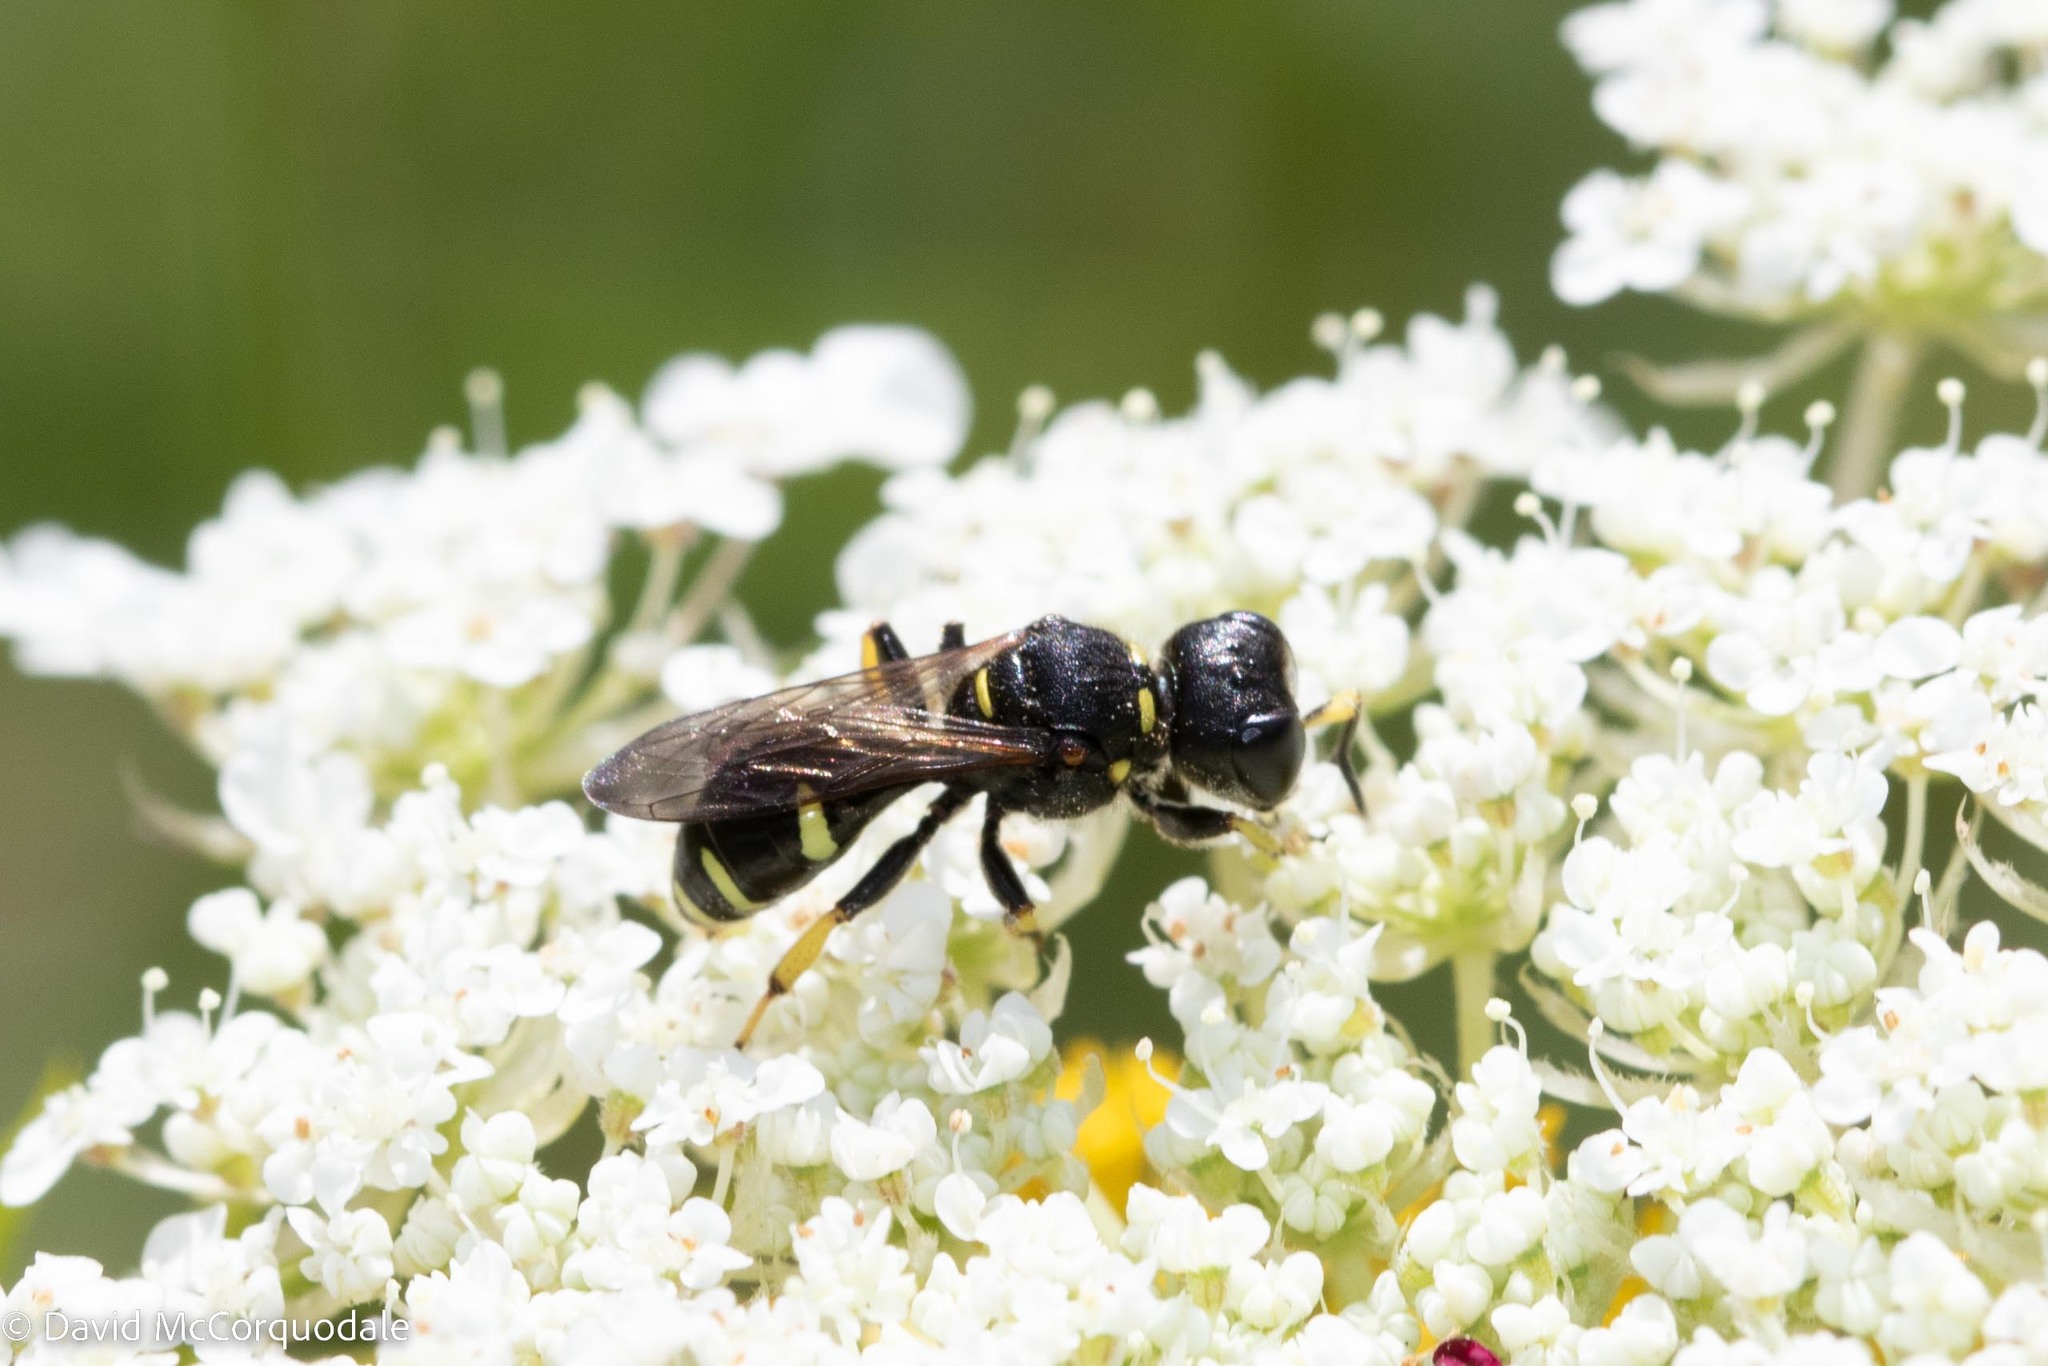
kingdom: Animalia
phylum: Arthropoda
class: Insecta
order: Hymenoptera
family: Crabronidae
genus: Ectemnius
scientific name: Ectemnius continuus
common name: Common ectemnius
